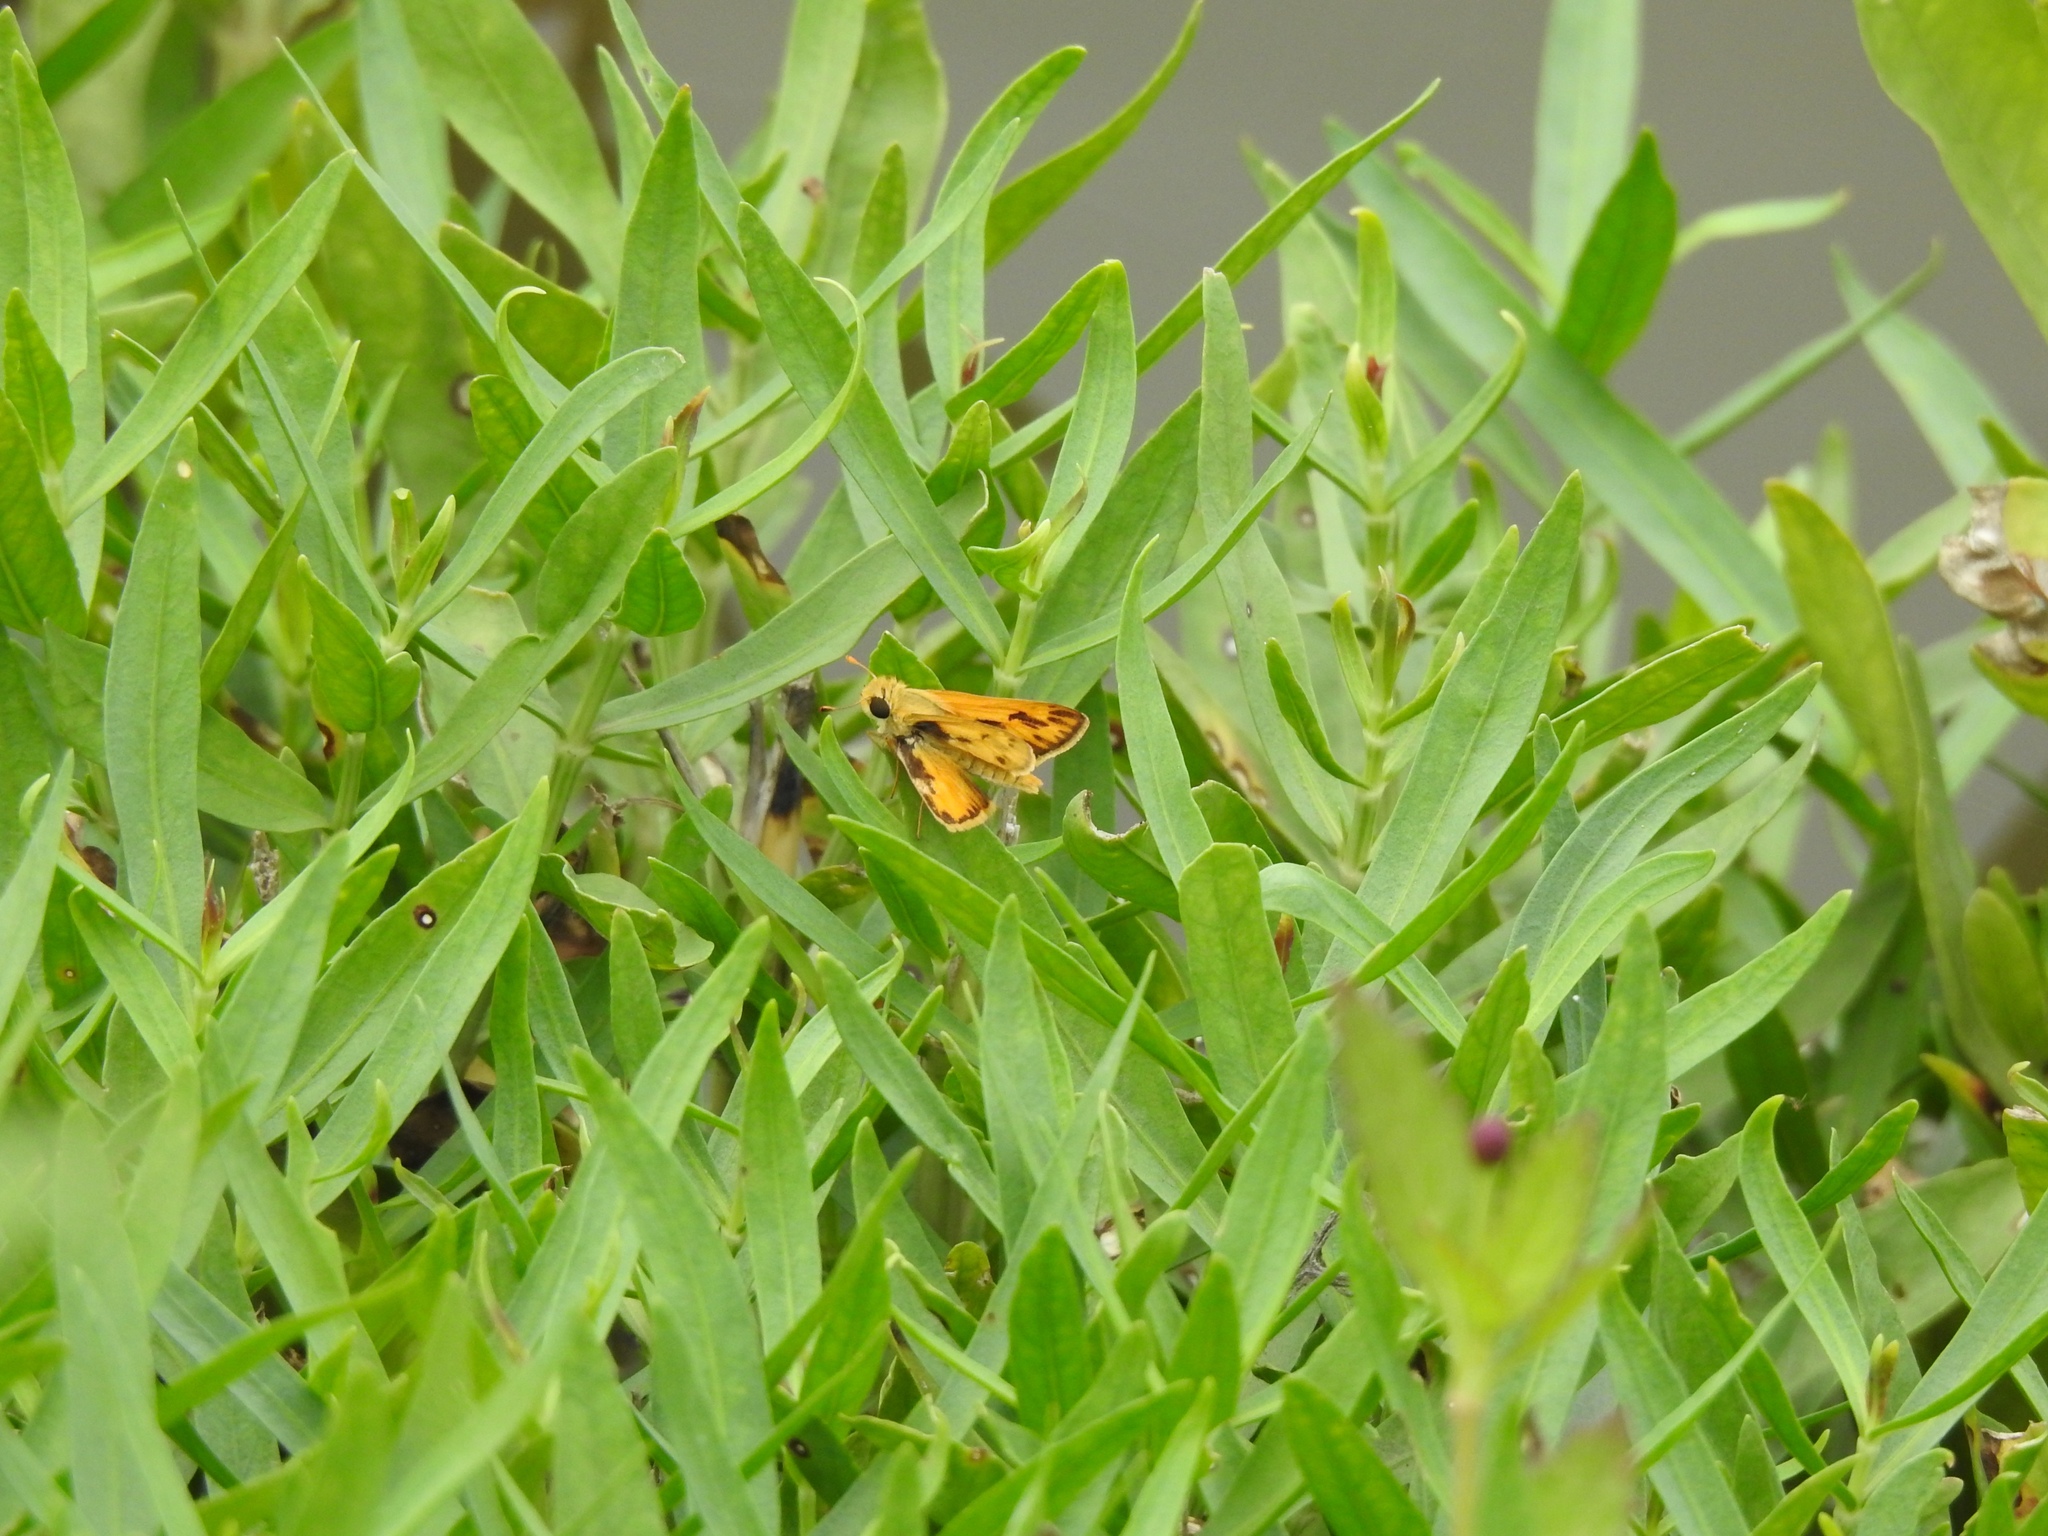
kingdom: Animalia
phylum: Arthropoda
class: Insecta
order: Lepidoptera
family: Hesperiidae
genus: Hylephila
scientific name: Hylephila phyleus
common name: Fiery skipper
